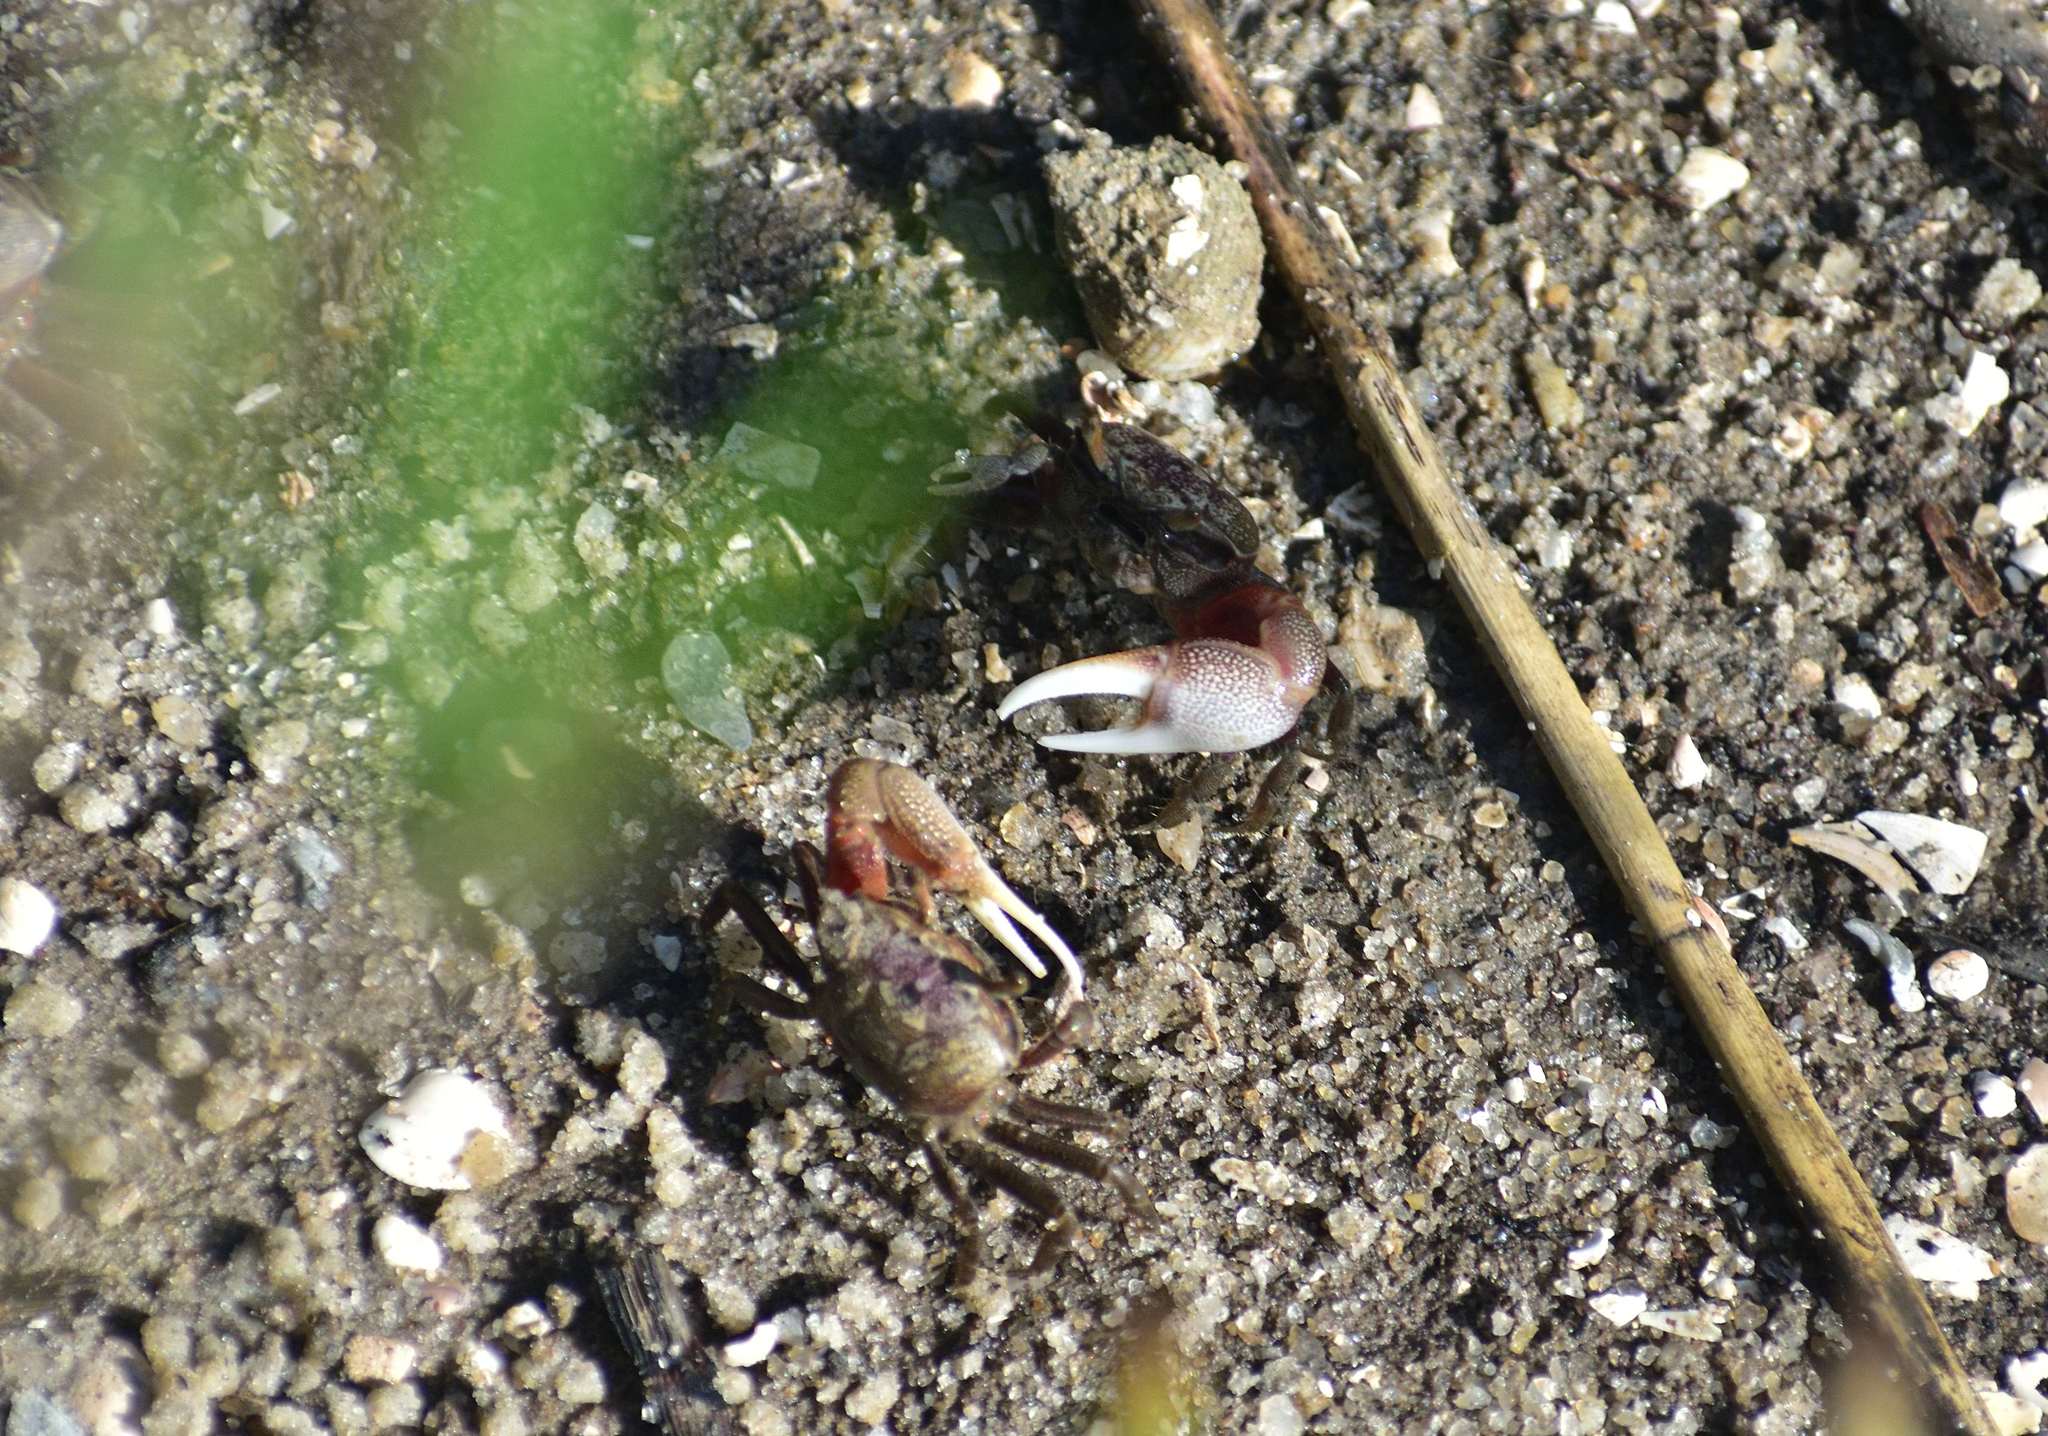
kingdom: Animalia
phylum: Arthropoda
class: Malacostraca
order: Decapoda
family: Ocypodidae
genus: Leptuca
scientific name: Leptuca pugilator
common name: Atlantic sand fiddler crab
